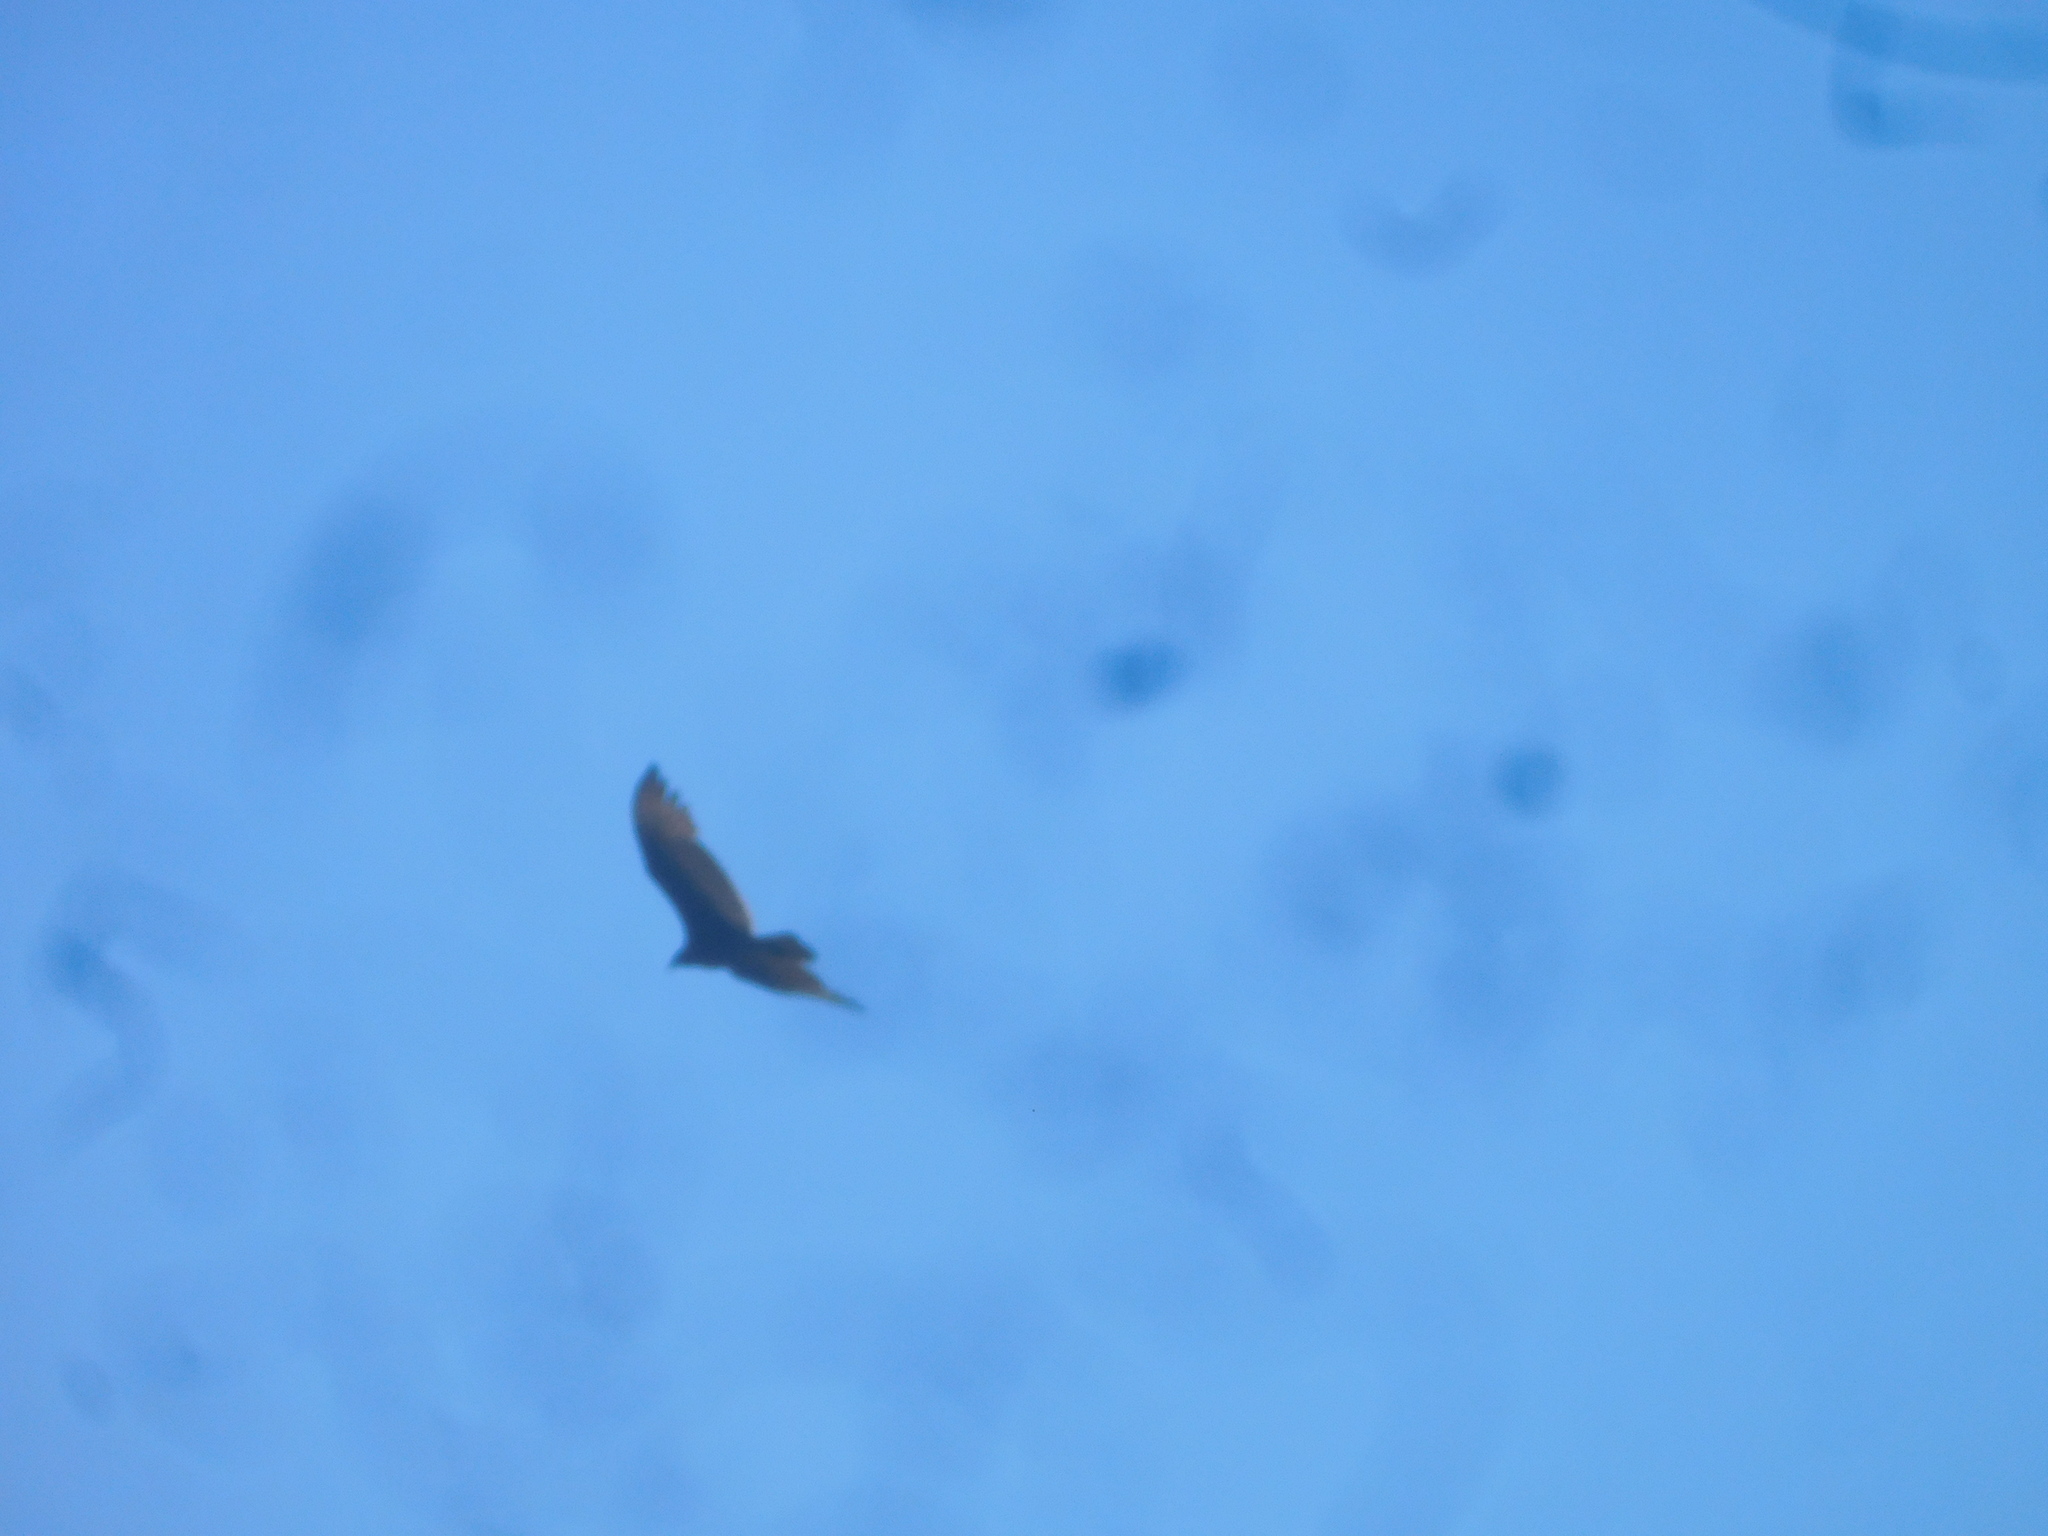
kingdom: Animalia
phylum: Chordata
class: Aves
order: Accipitriformes
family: Cathartidae
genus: Cathartes
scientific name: Cathartes aura
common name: Turkey vulture
